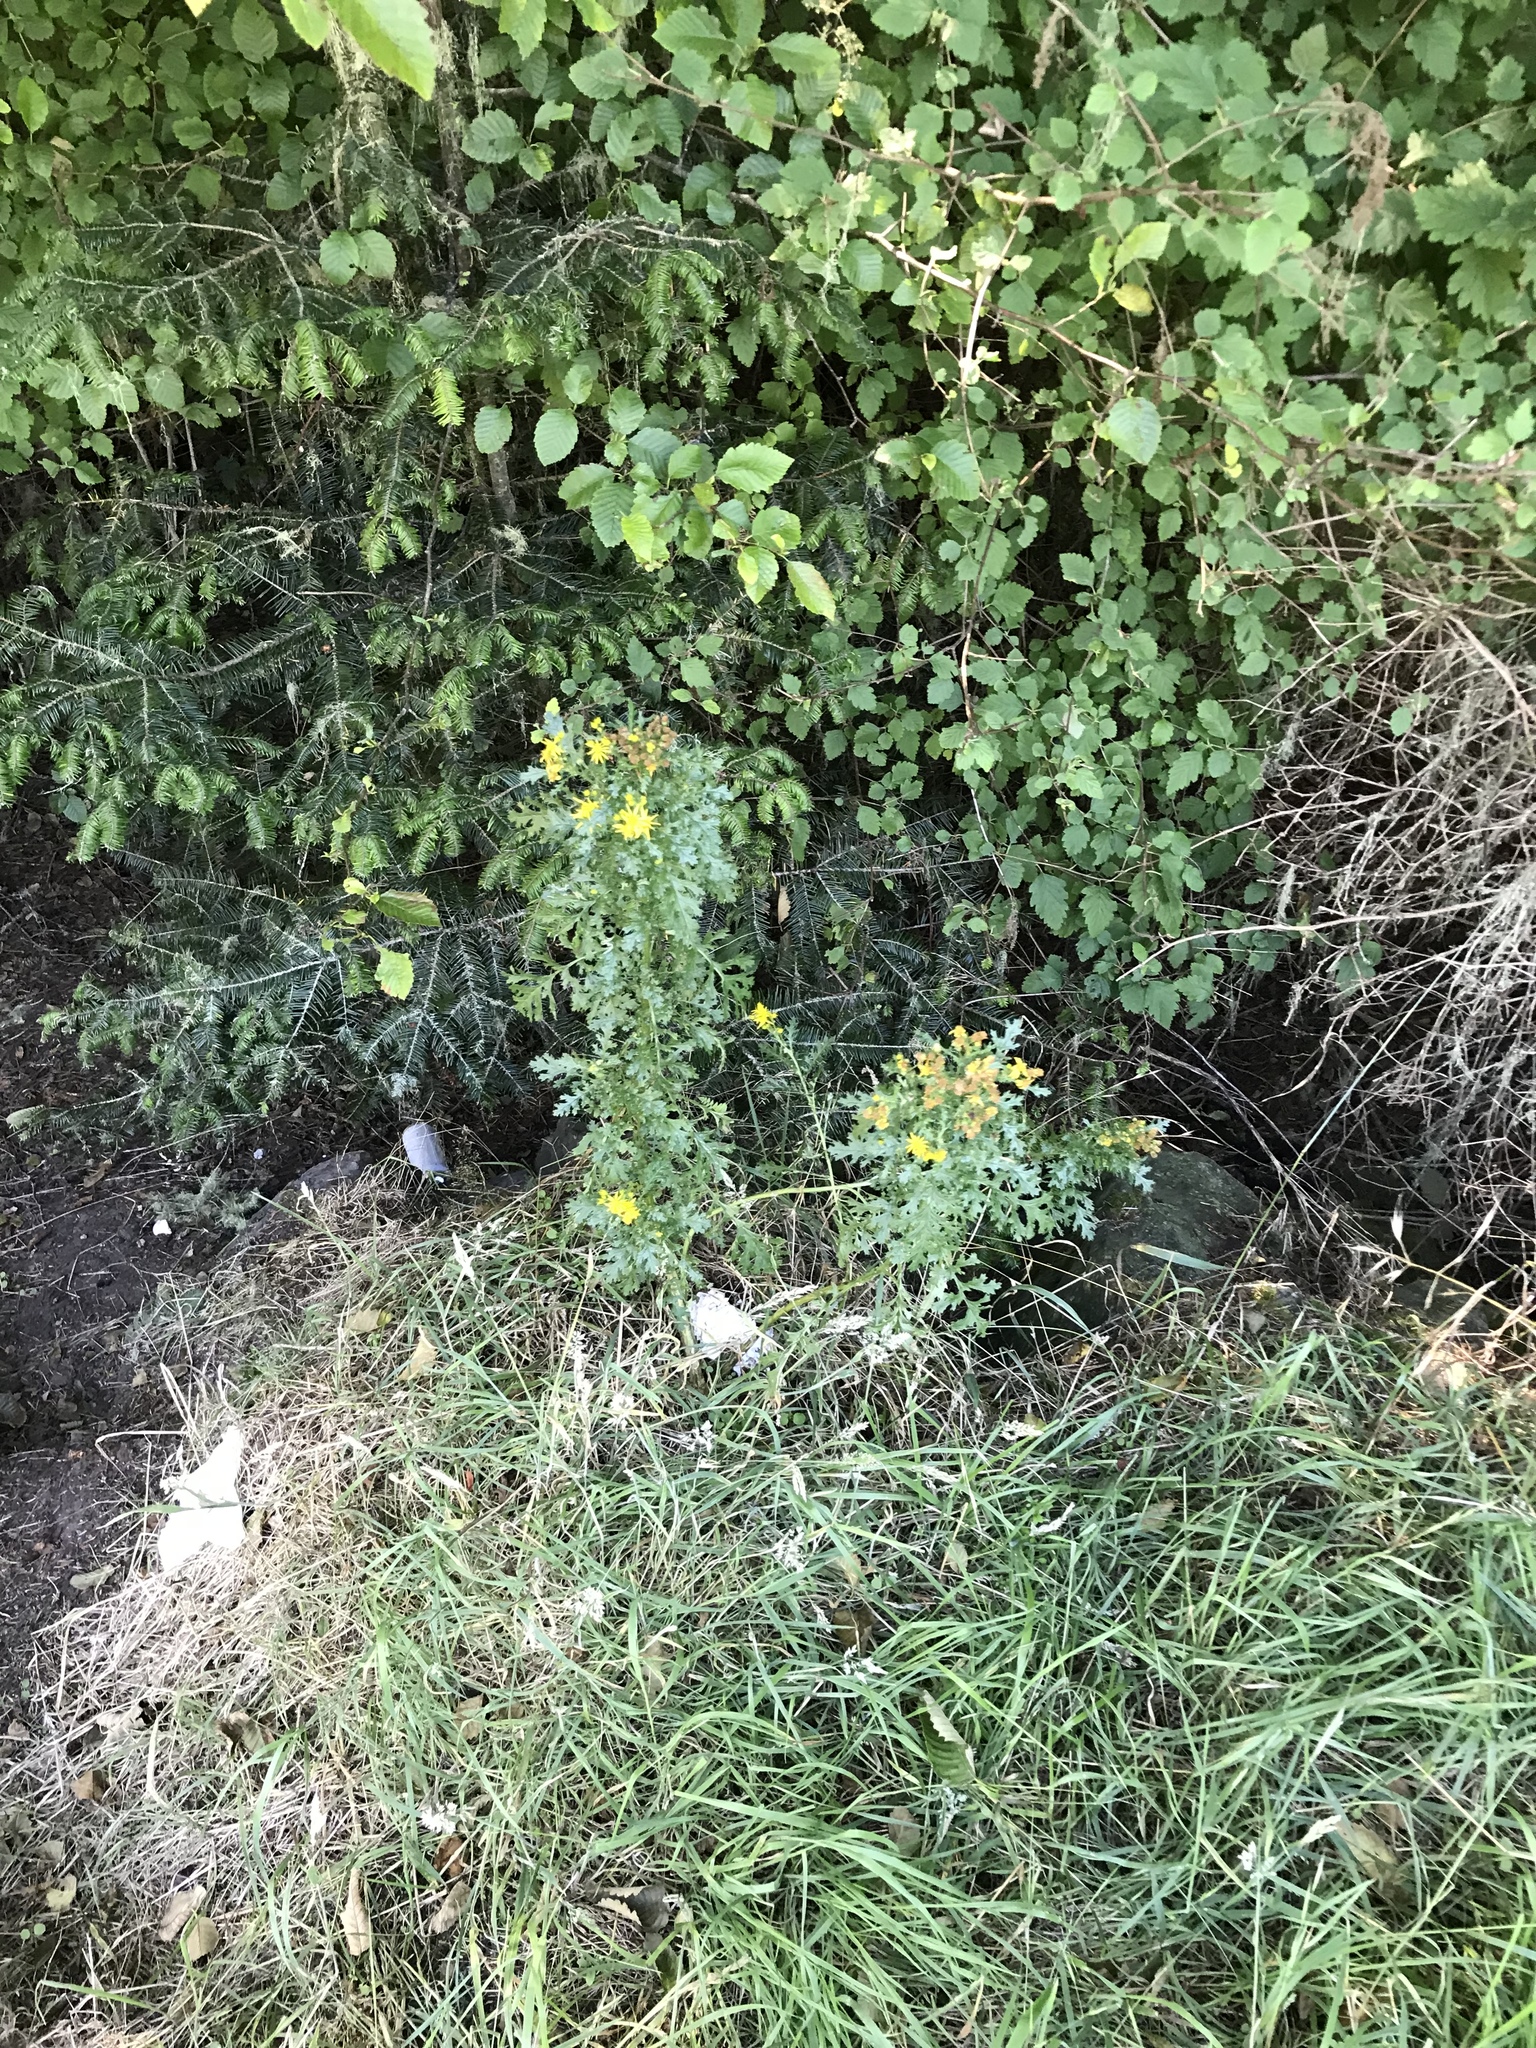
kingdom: Plantae
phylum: Tracheophyta
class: Magnoliopsida
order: Asterales
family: Asteraceae
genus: Jacobaea
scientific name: Jacobaea vulgaris
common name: Stinking willie
